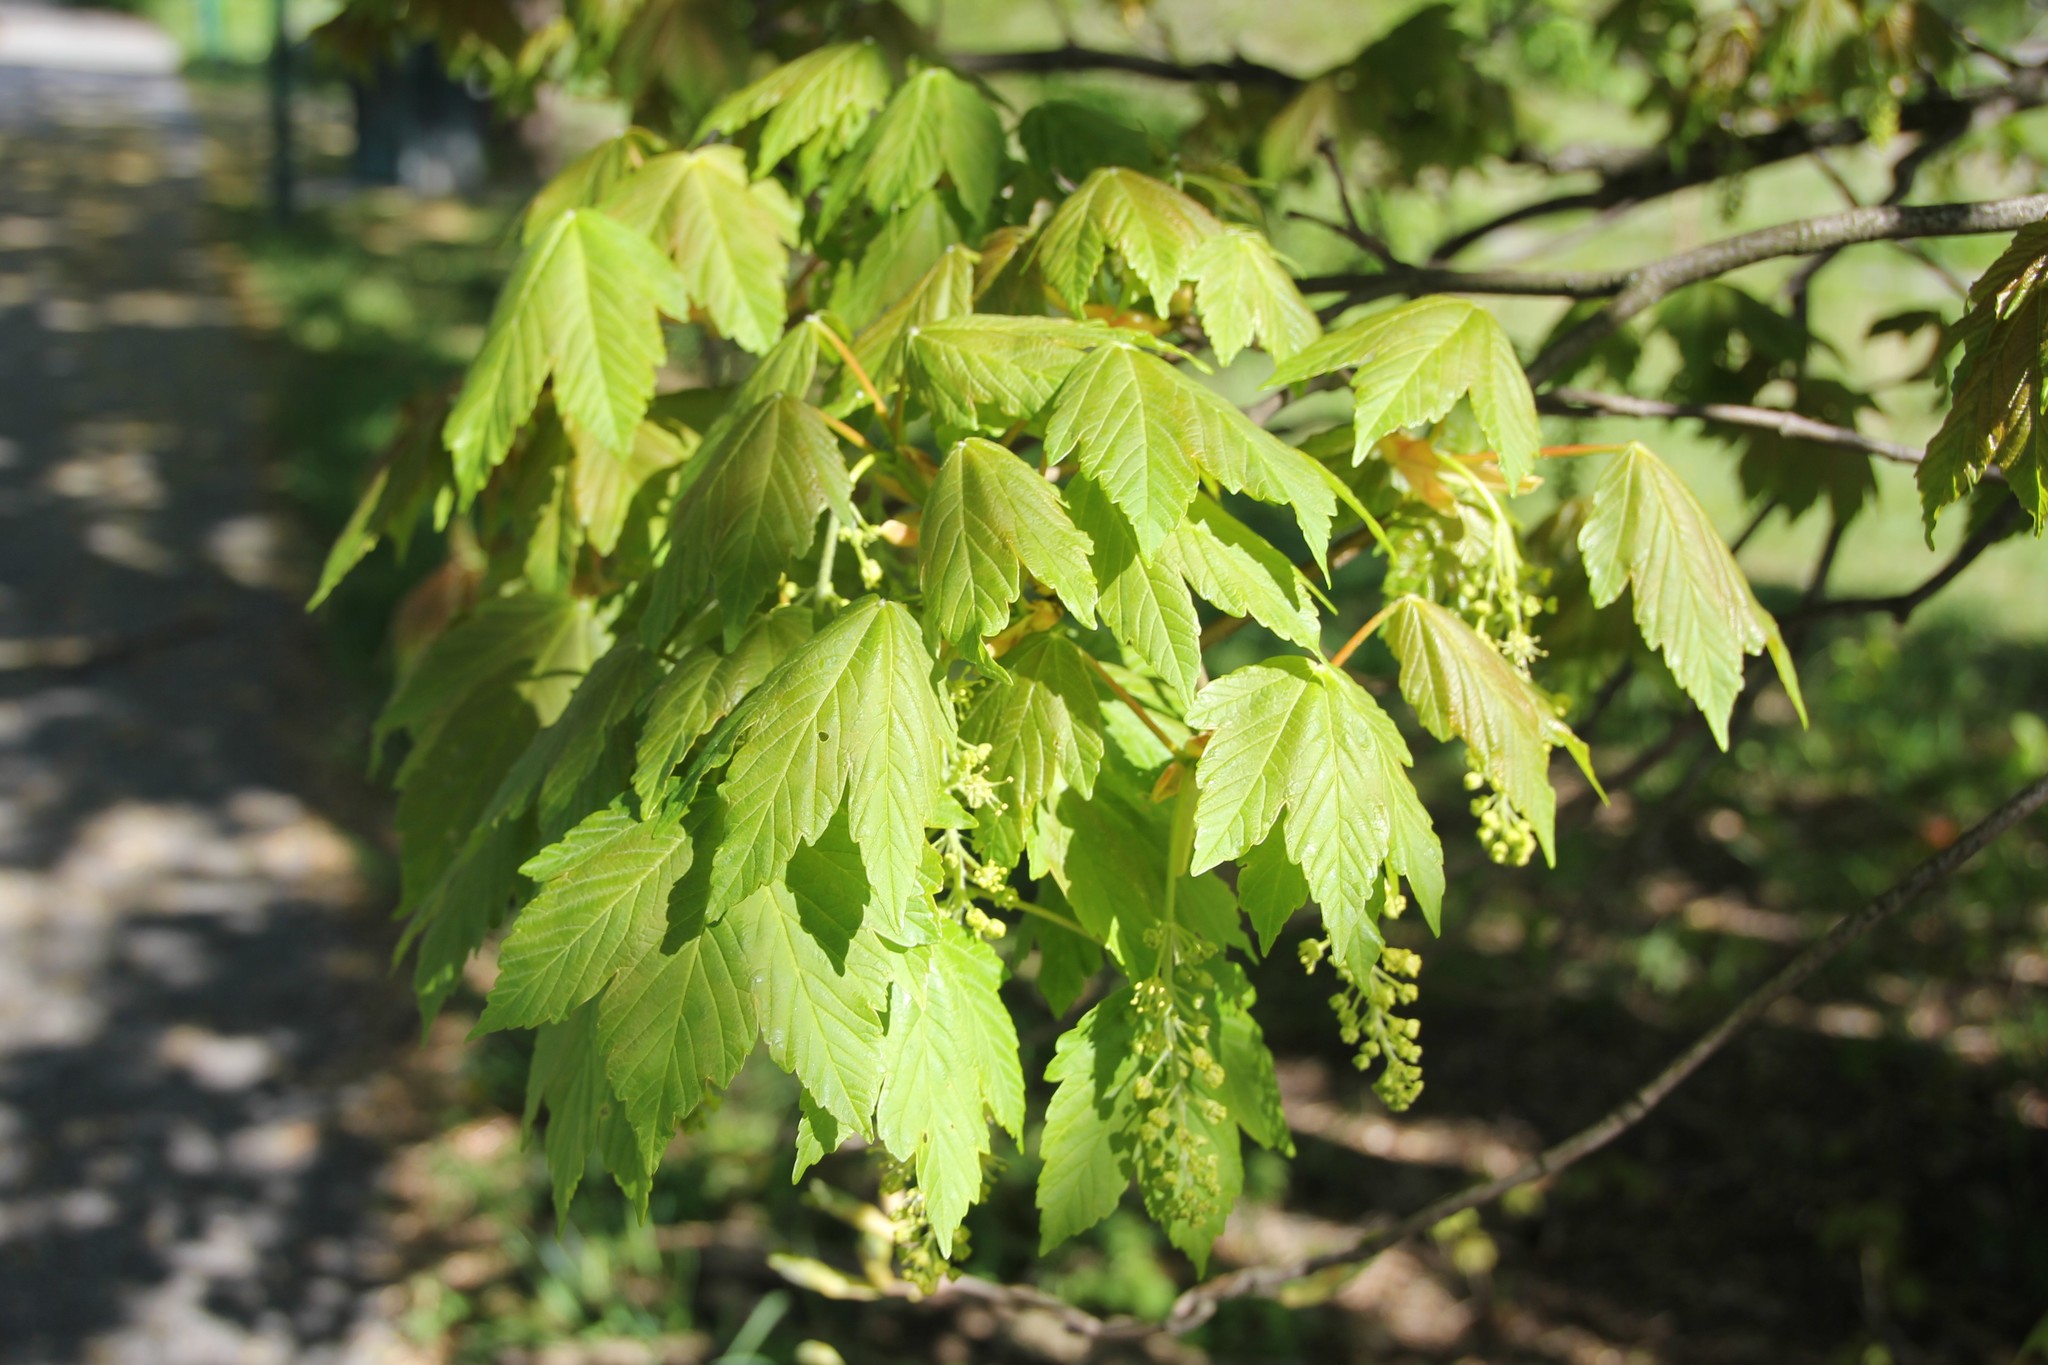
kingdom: Plantae
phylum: Tracheophyta
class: Magnoliopsida
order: Sapindales
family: Sapindaceae
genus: Acer
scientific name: Acer pseudoplatanus
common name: Sycamore
